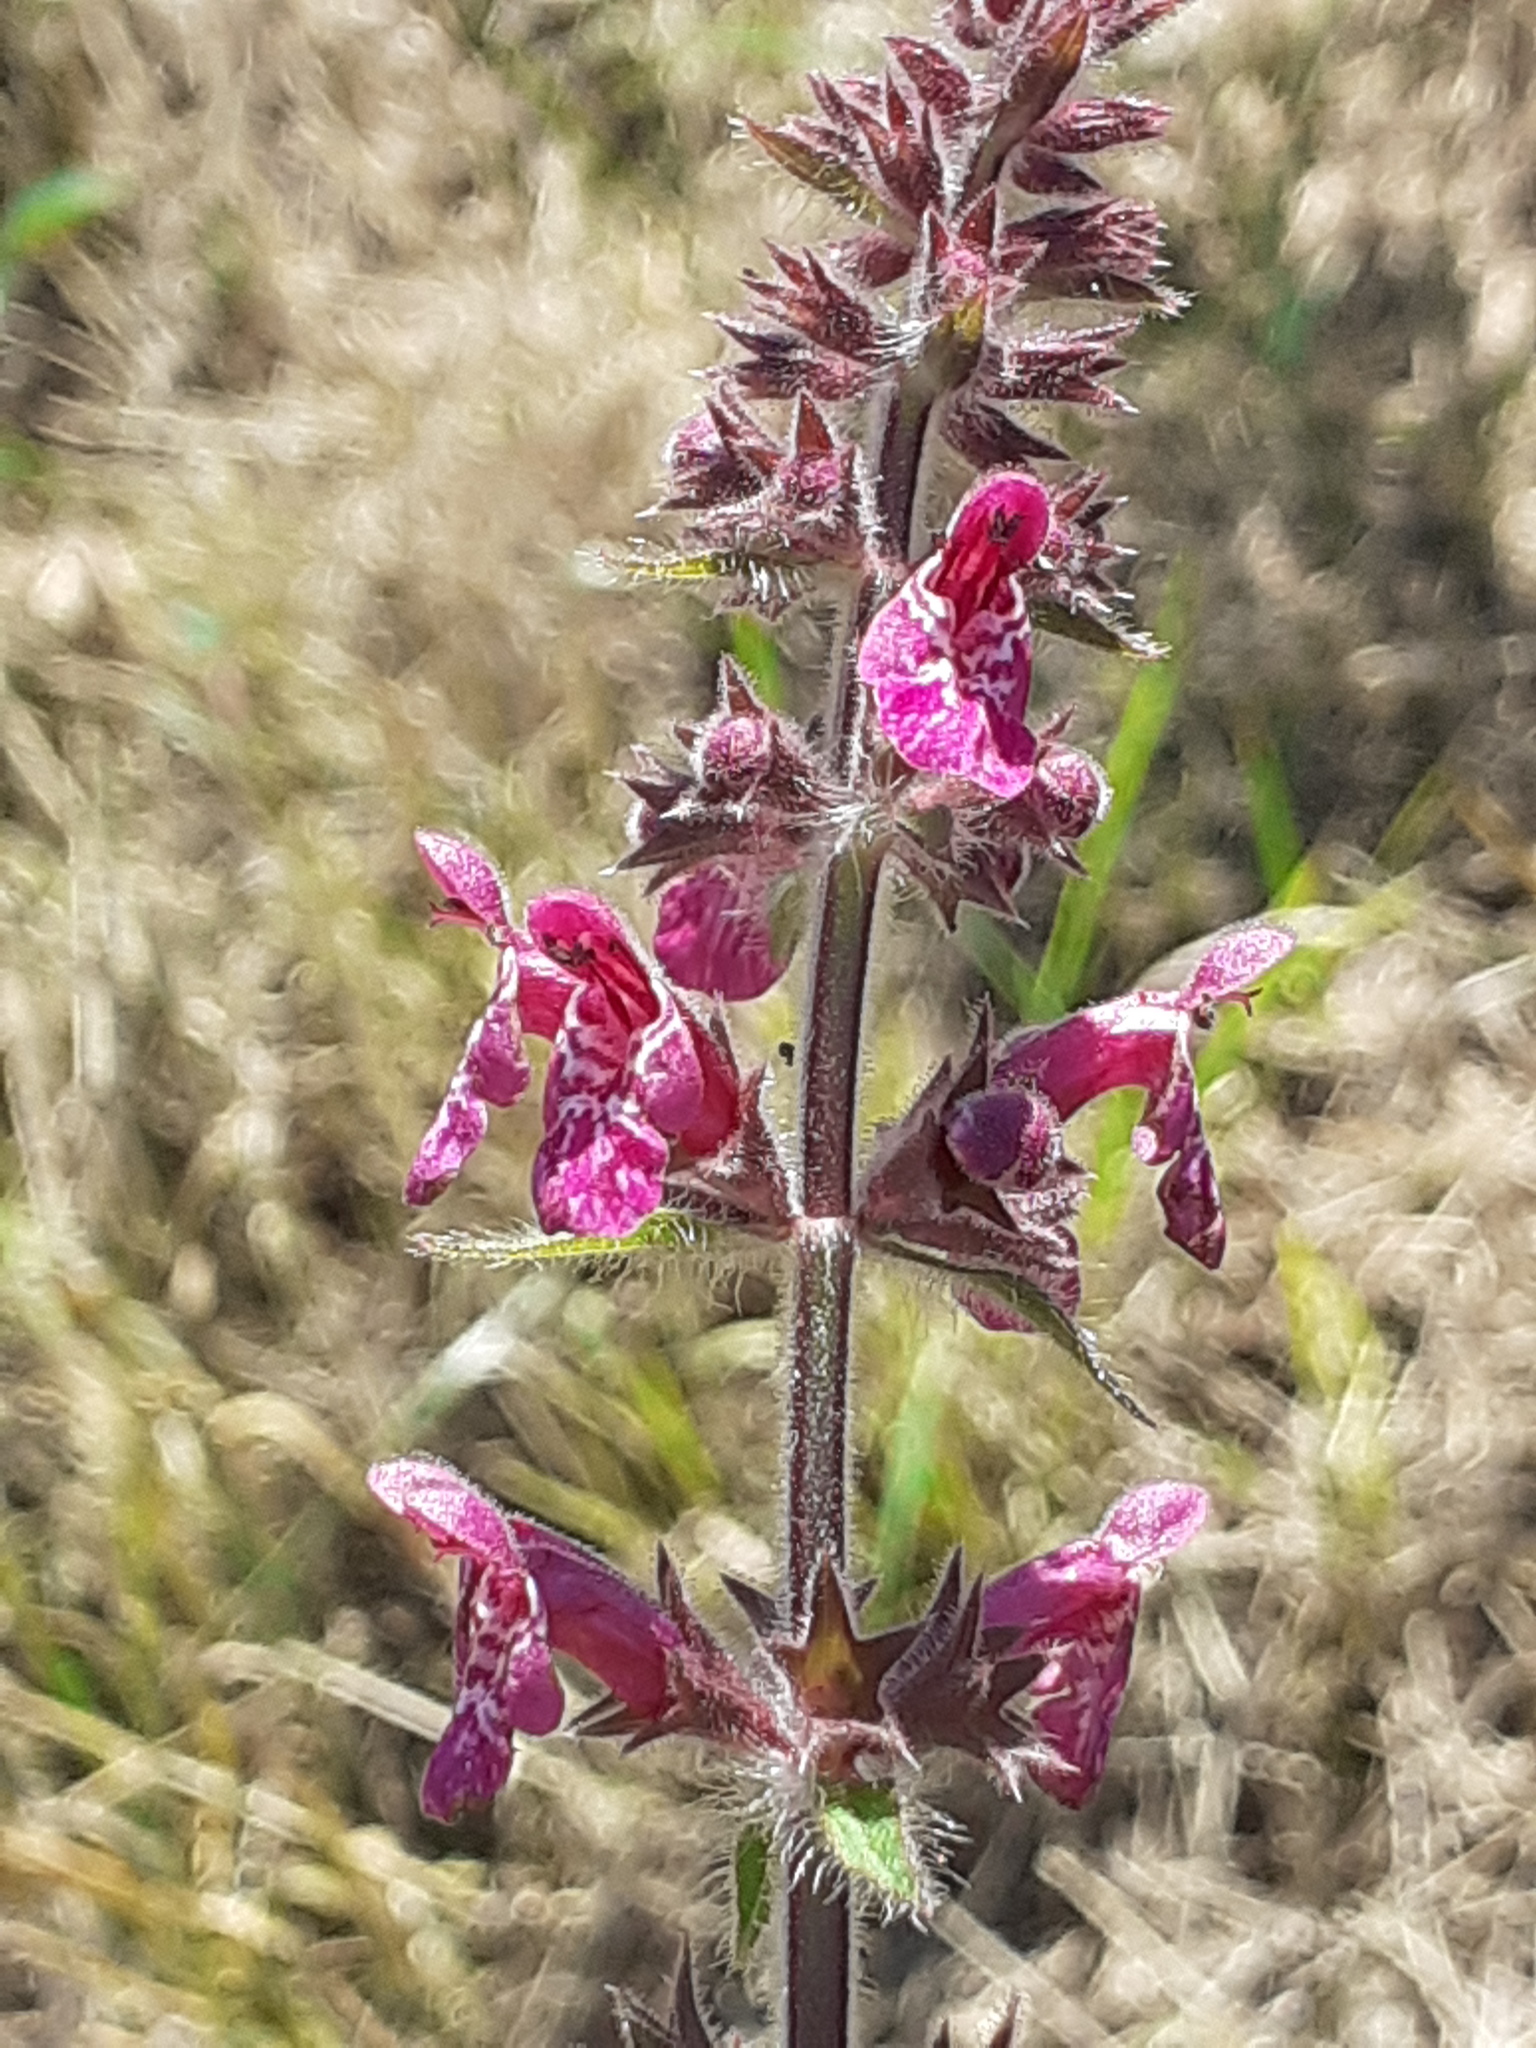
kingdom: Plantae
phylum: Tracheophyta
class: Magnoliopsida
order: Lamiales
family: Lamiaceae
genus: Stachys
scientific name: Stachys sylvatica
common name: Hedge woundwort
